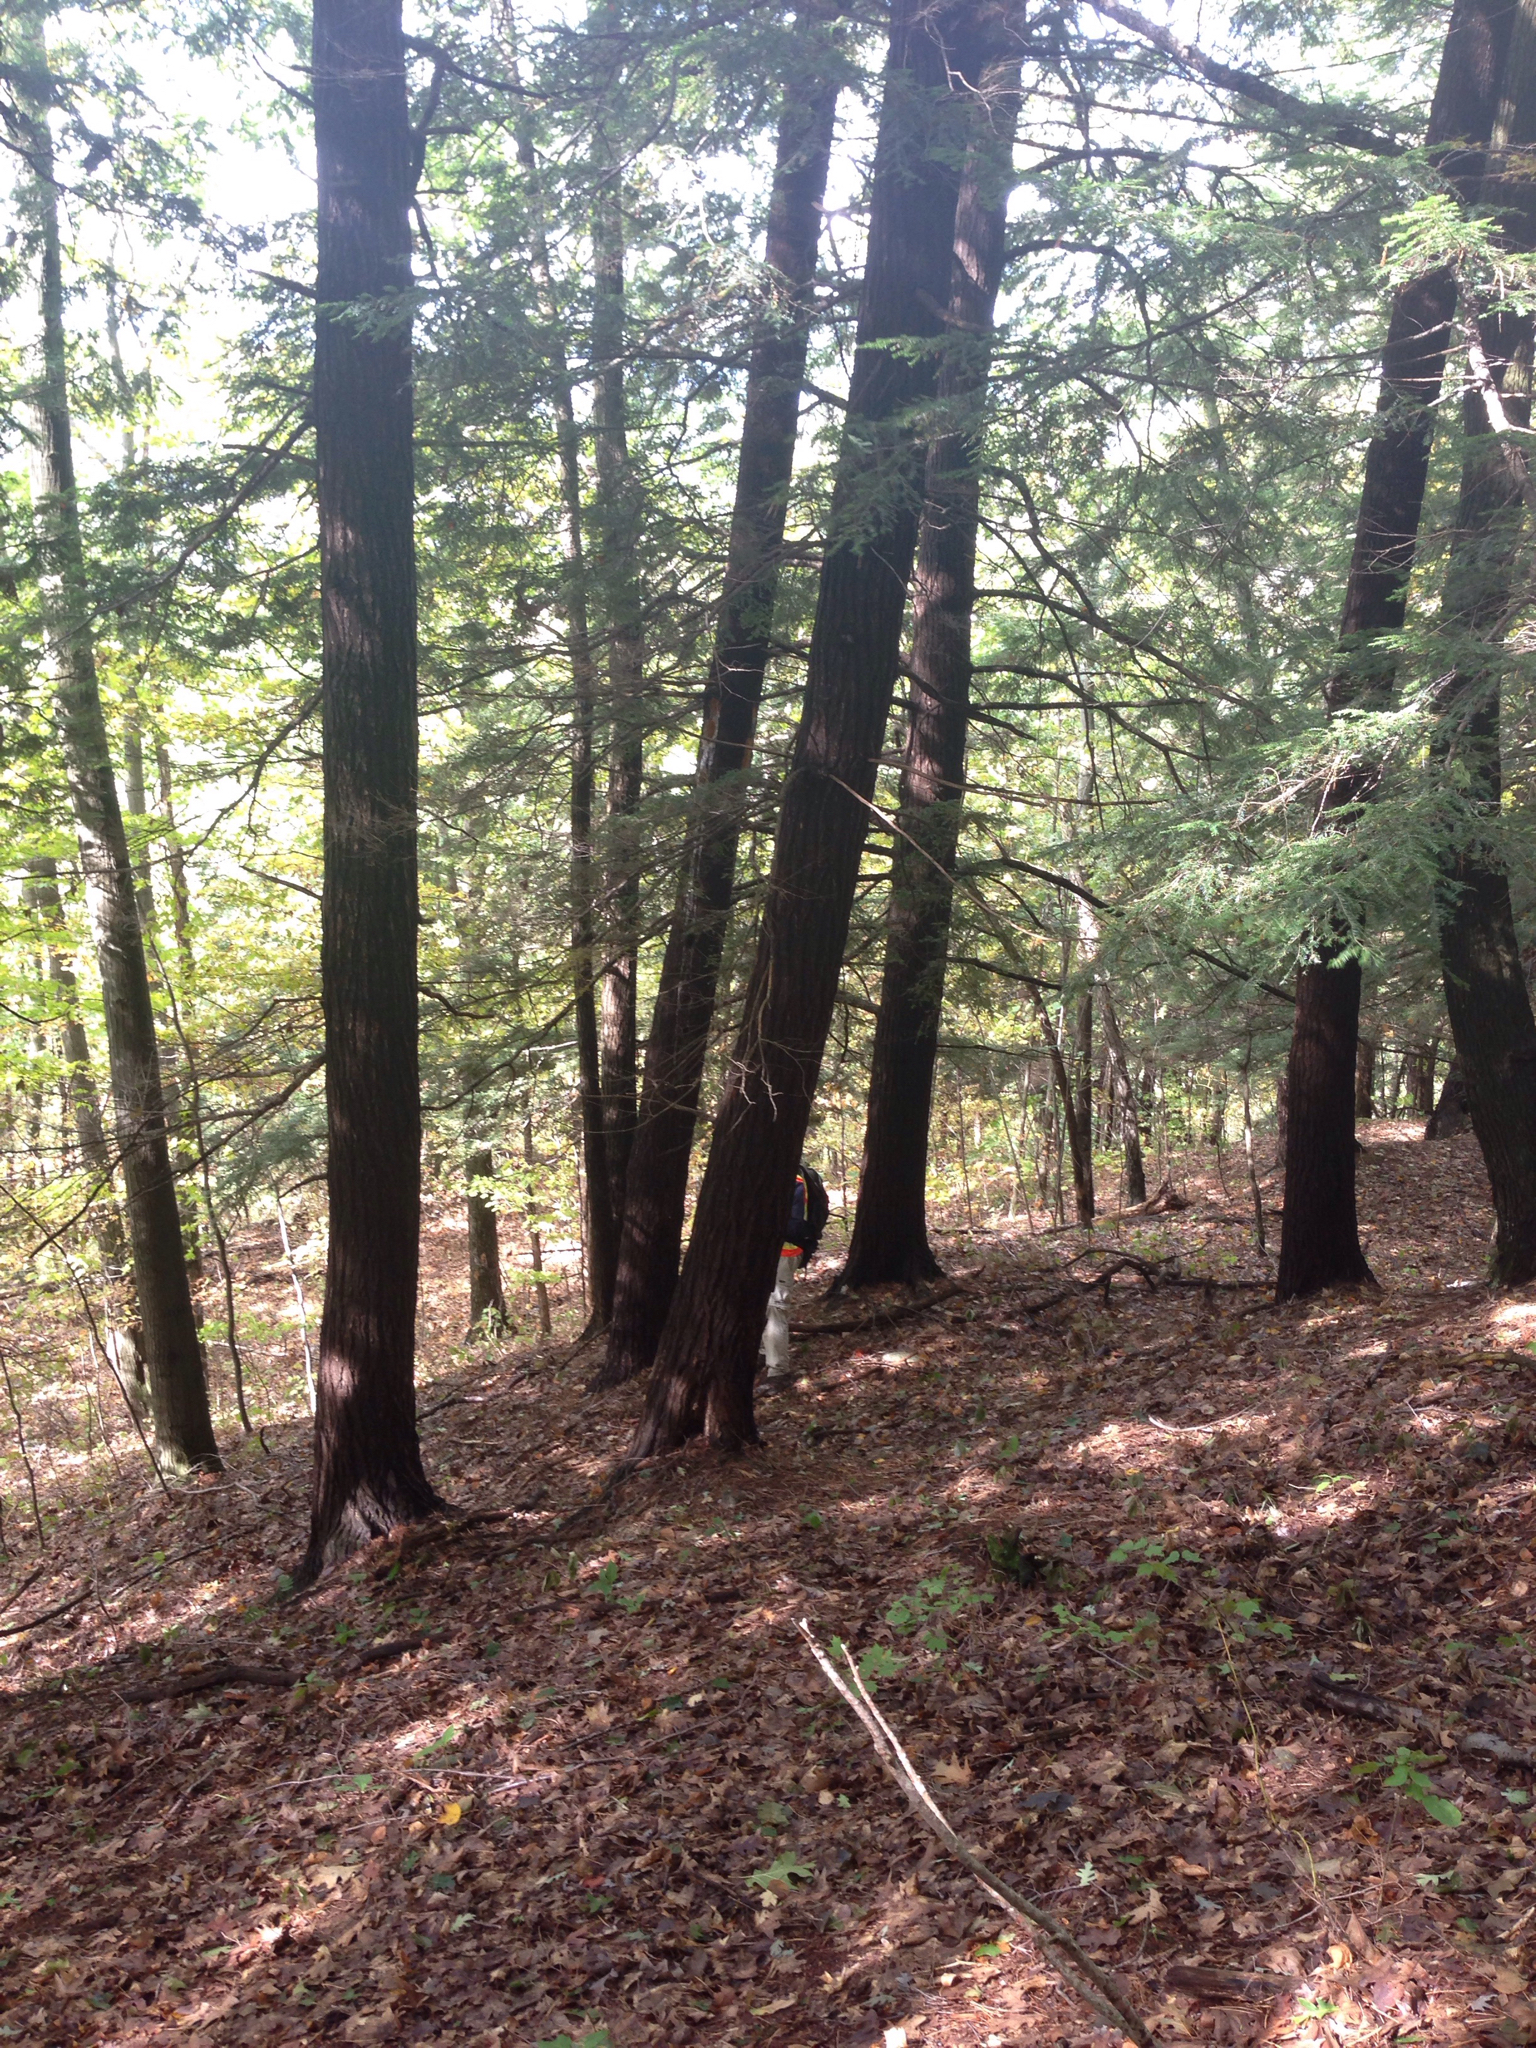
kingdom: Plantae
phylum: Tracheophyta
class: Pinopsida
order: Pinales
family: Pinaceae
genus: Tsuga
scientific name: Tsuga canadensis
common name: Eastern hemlock
